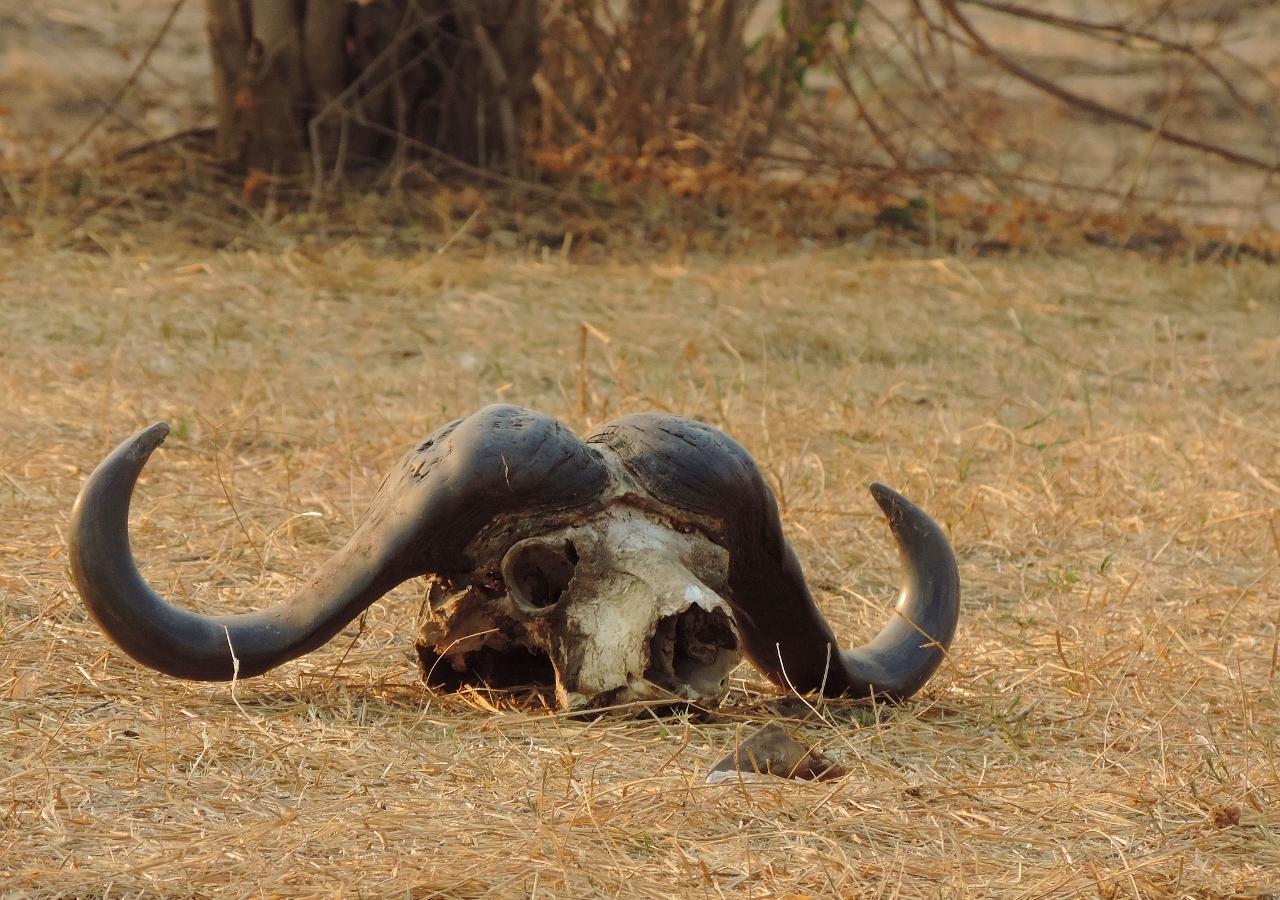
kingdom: Animalia
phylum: Chordata
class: Mammalia
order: Artiodactyla
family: Bovidae
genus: Syncerus
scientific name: Syncerus caffer
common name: African buffalo
